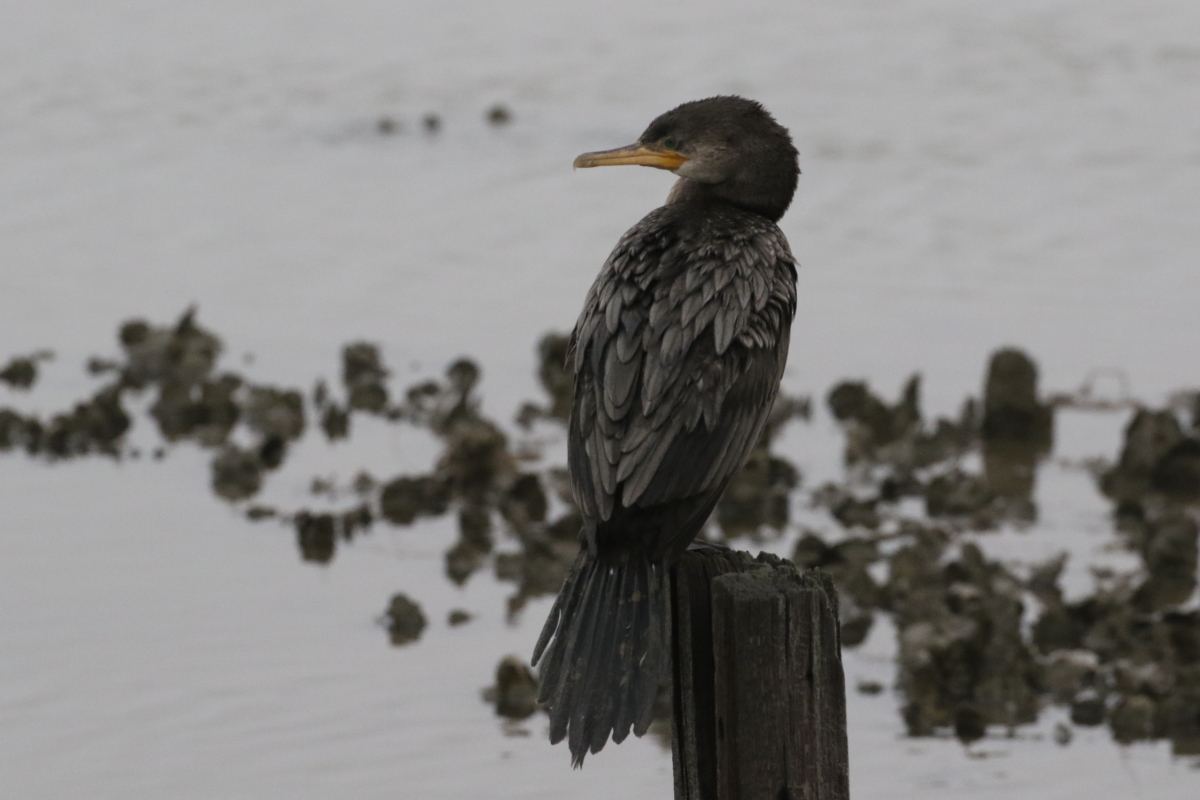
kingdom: Animalia
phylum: Chordata
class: Aves
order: Suliformes
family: Phalacrocoracidae
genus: Phalacrocorax
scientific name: Phalacrocorax brasilianus
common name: Neotropic cormorant
